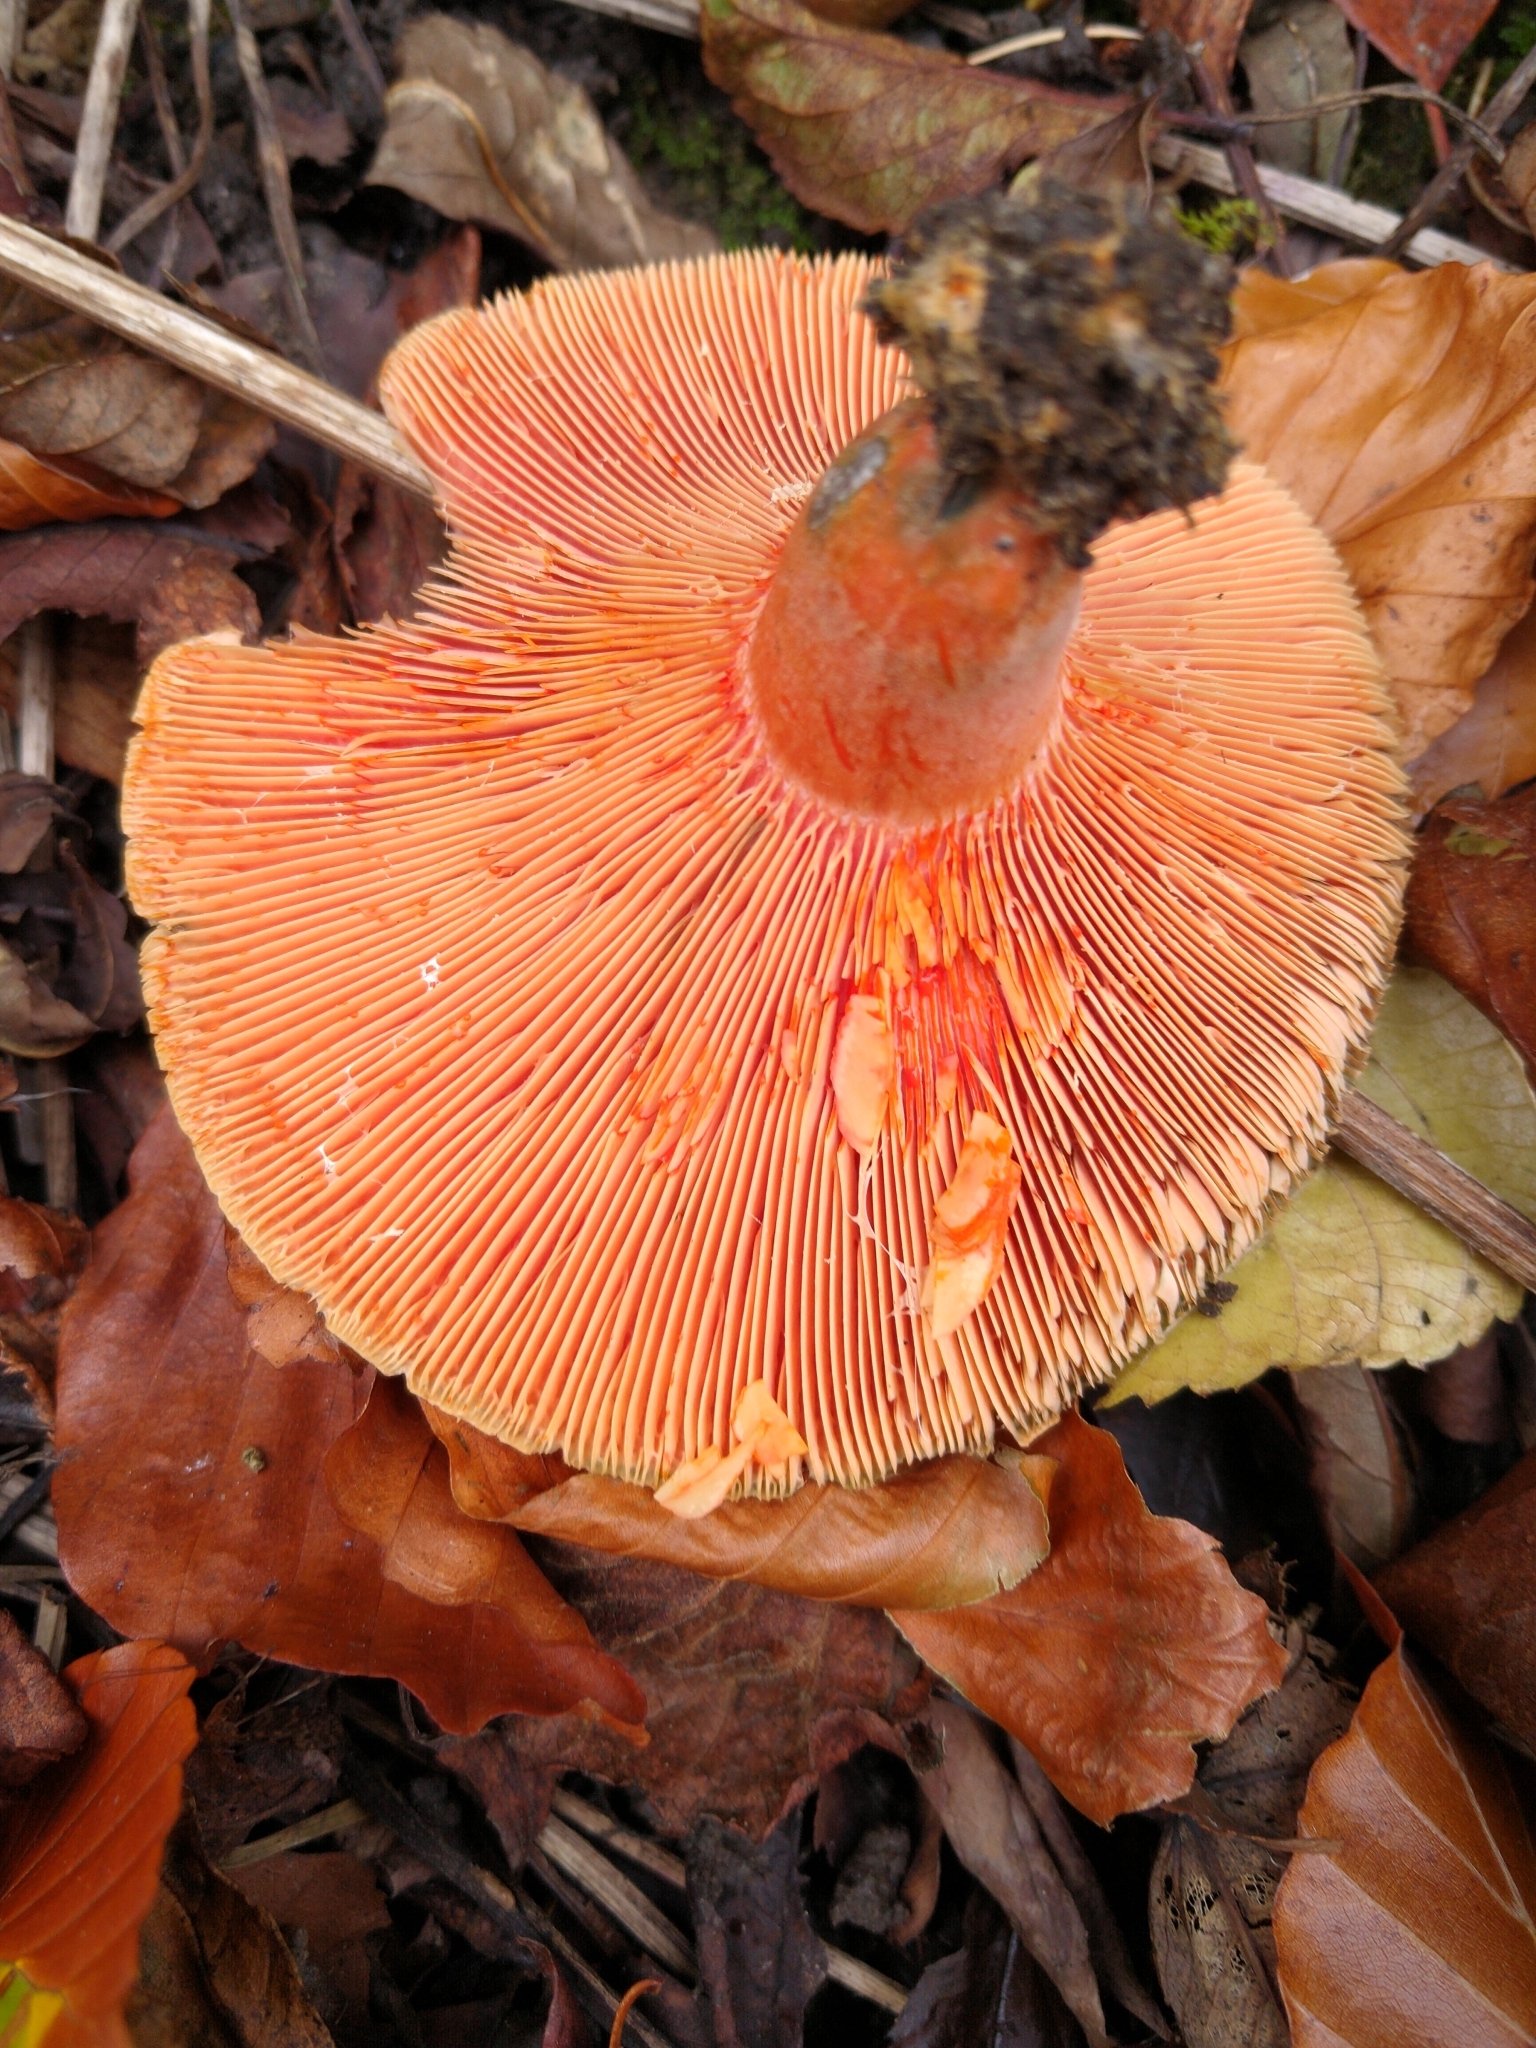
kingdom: Fungi
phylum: Basidiomycota
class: Agaricomycetes
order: Russulales
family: Russulaceae
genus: Lactarius
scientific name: Lactarius deterrimus
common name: False saffron milkcap
